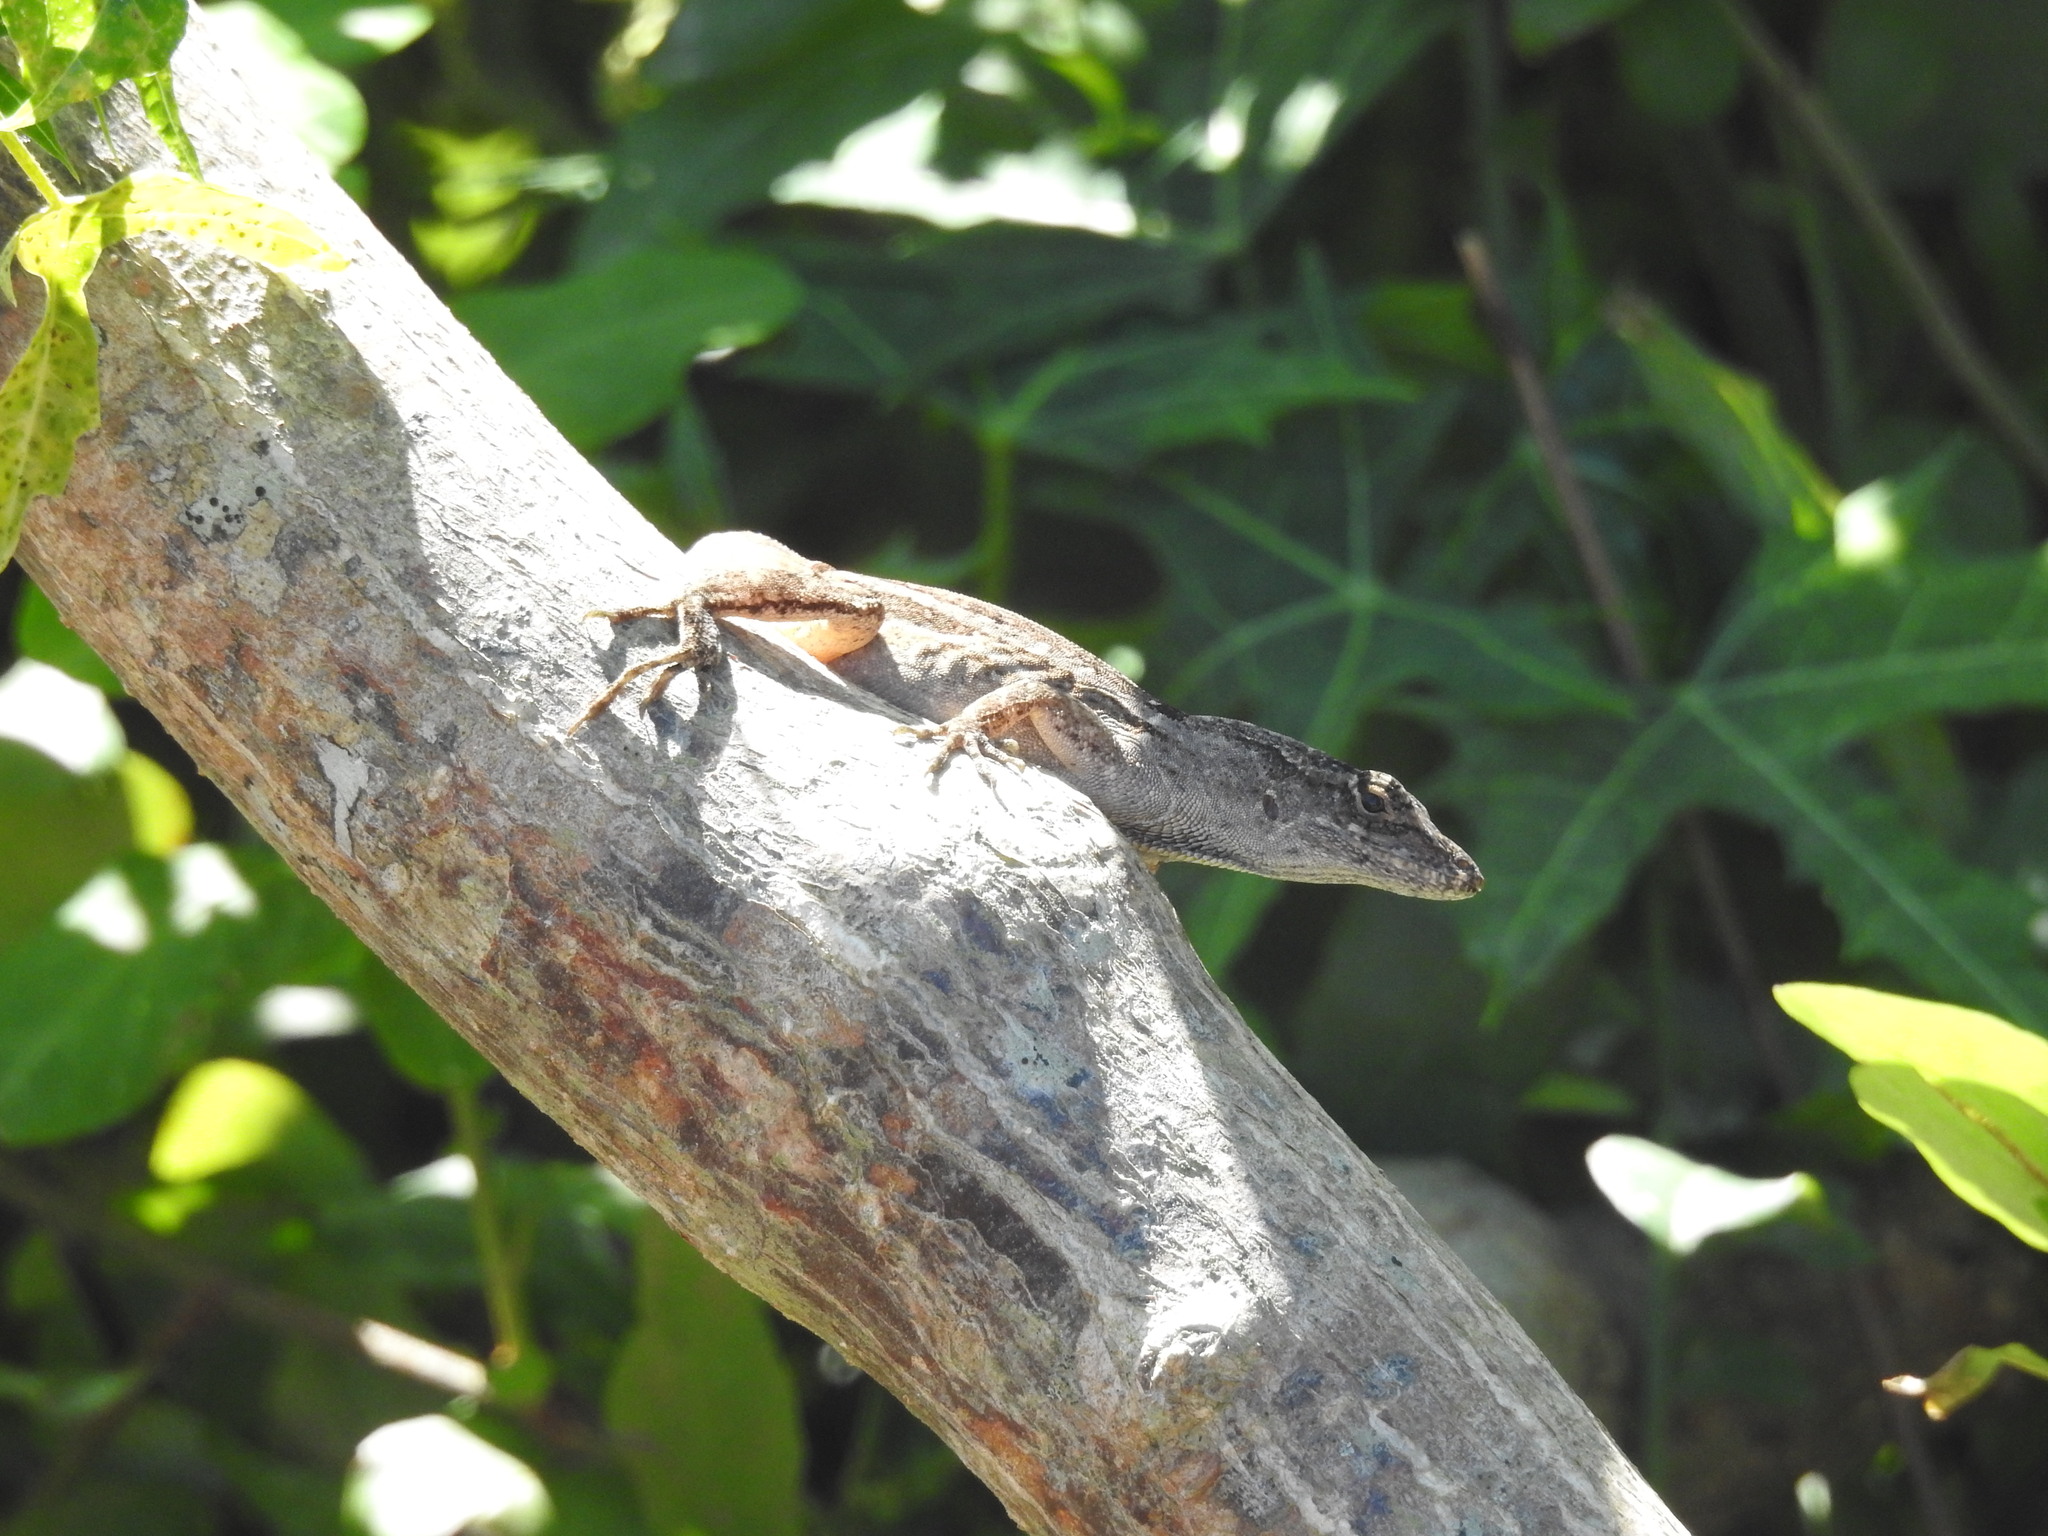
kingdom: Animalia
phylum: Chordata
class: Squamata
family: Dactyloidae
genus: Anolis
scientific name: Anolis sagrei
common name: Brown anole
